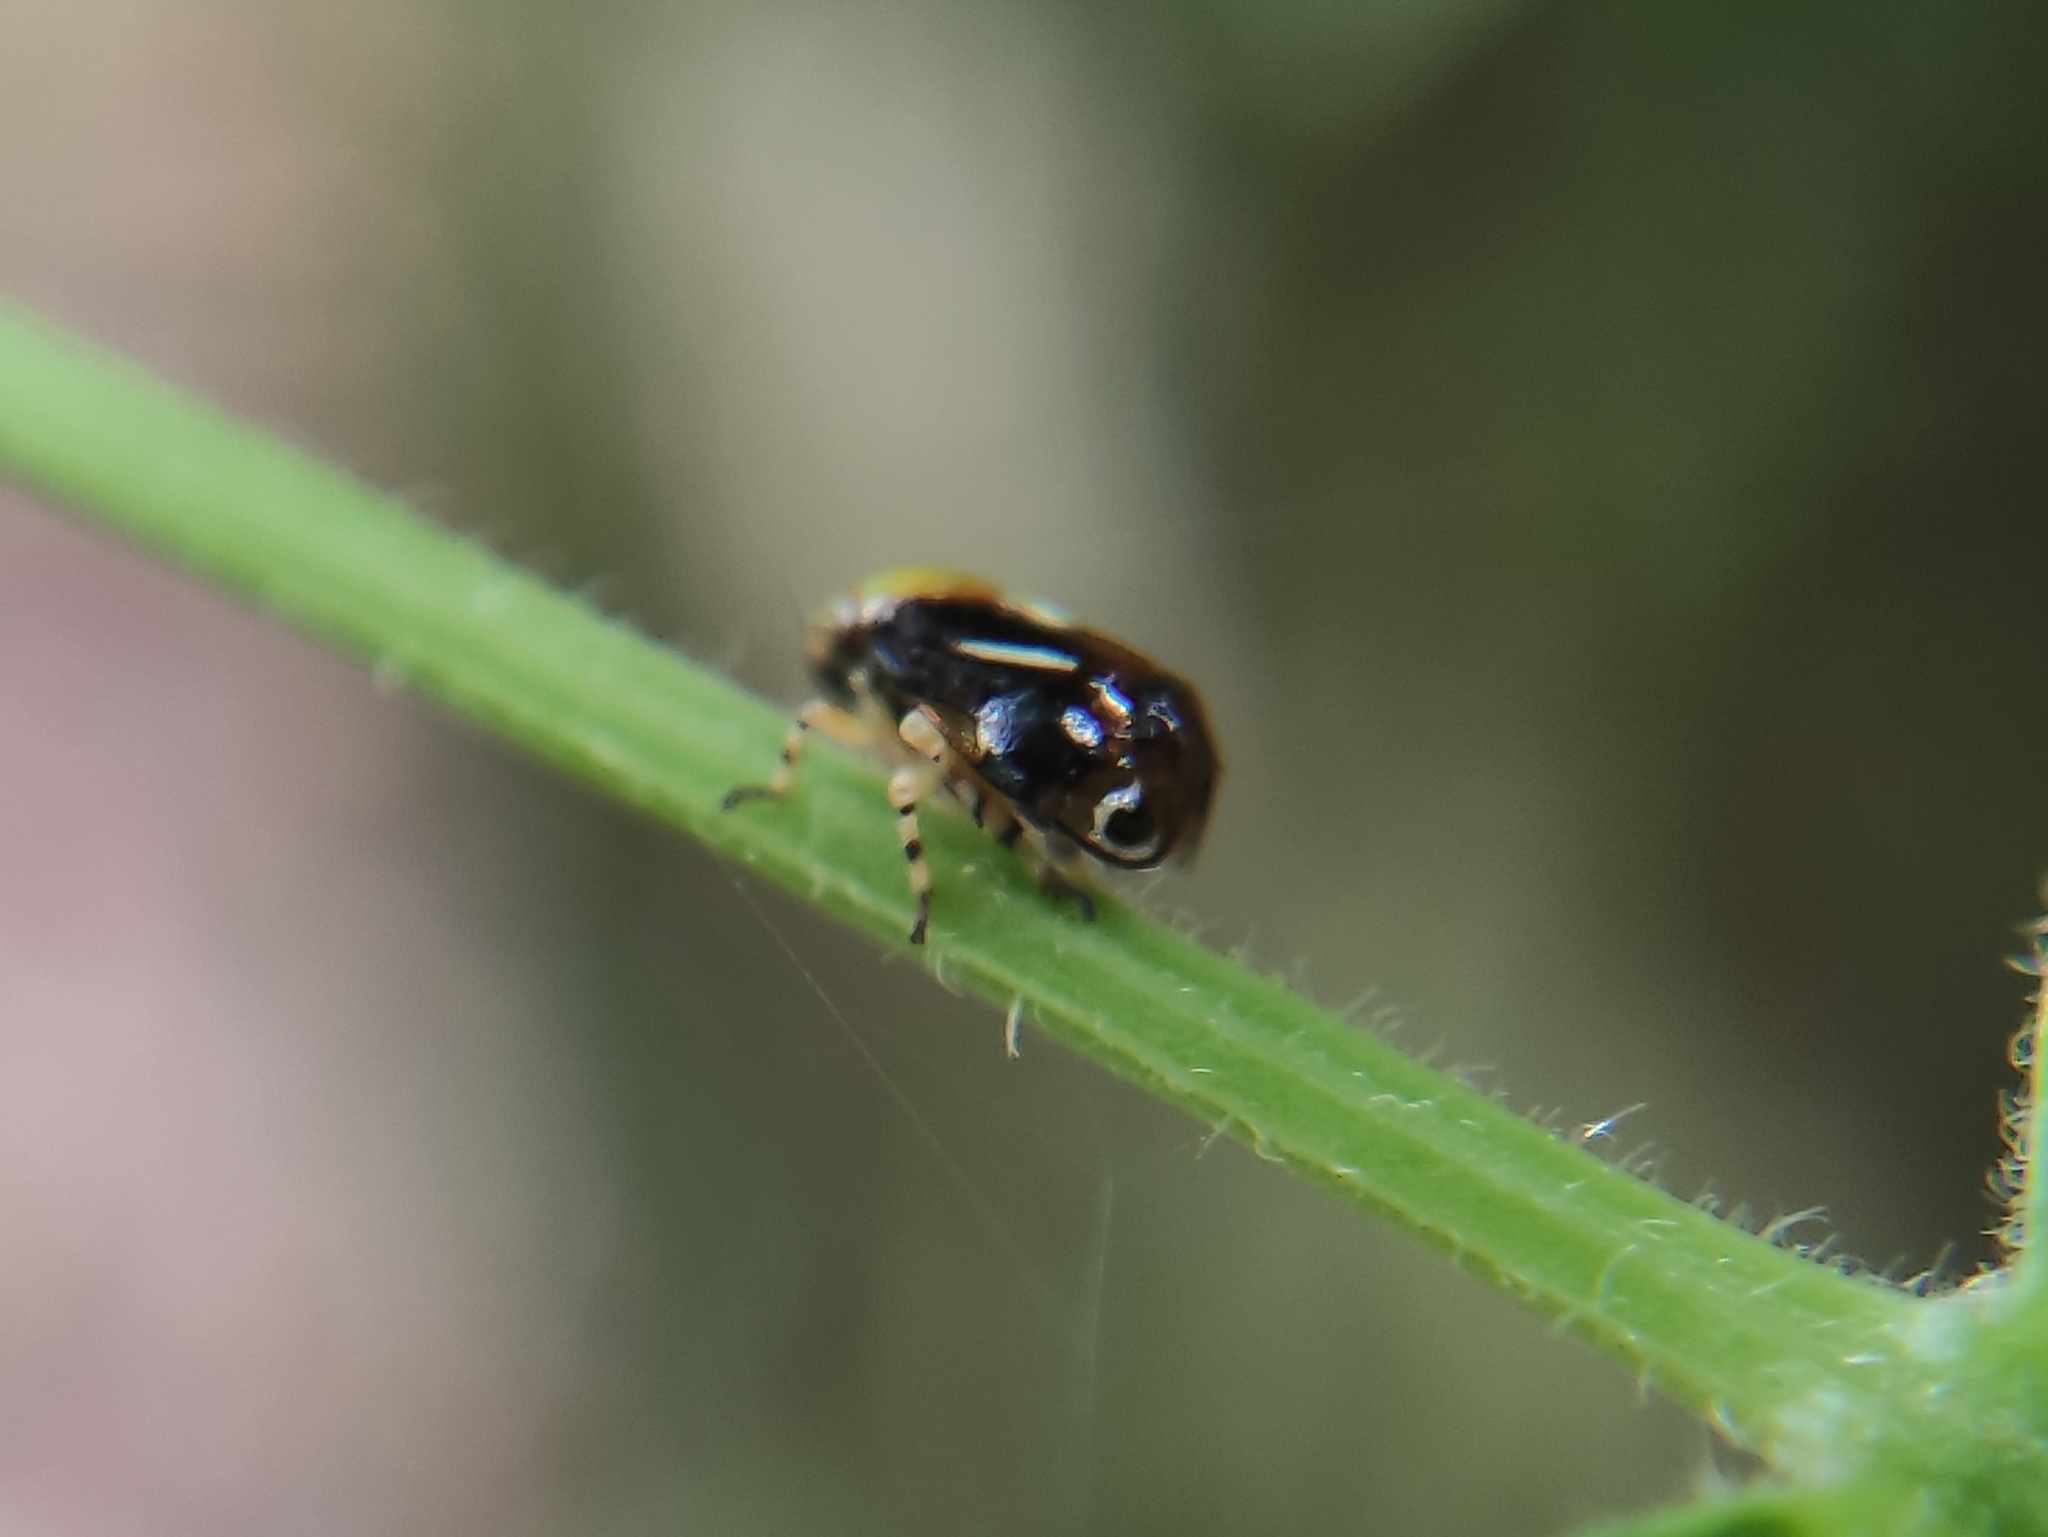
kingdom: Animalia
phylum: Arthropoda
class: Insecta
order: Hemiptera
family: Clastopteridae
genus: Clastoptera
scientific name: Clastoptera cimicoides
